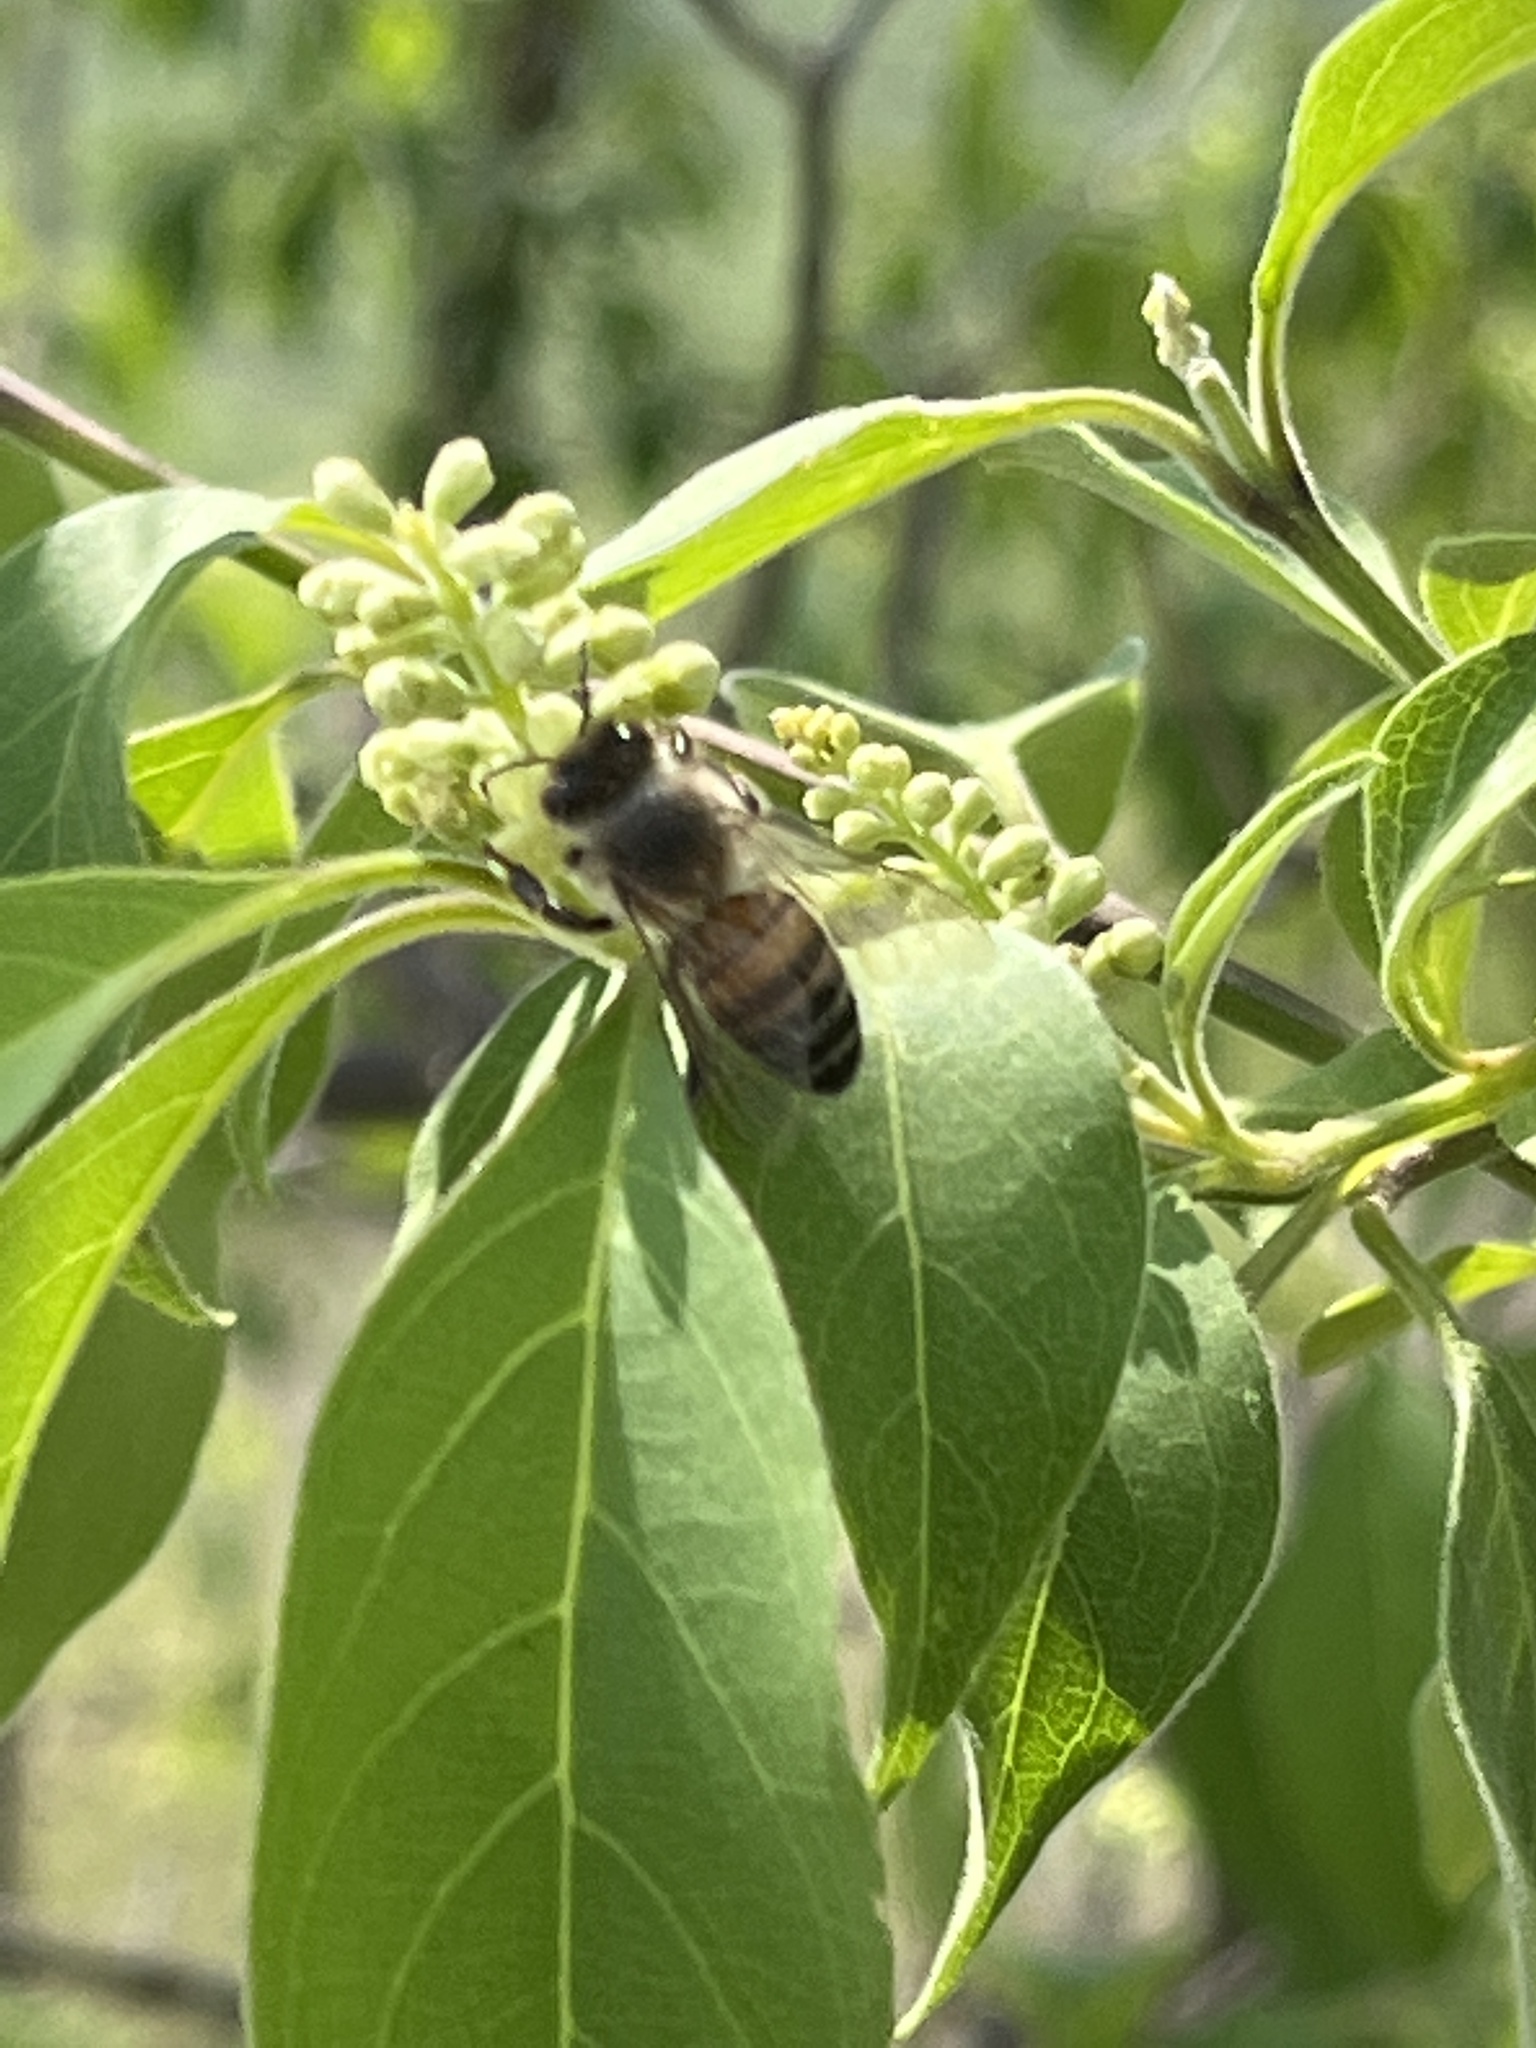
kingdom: Animalia
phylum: Arthropoda
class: Insecta
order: Hymenoptera
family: Apidae
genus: Apis
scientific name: Apis mellifera
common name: Honey bee
